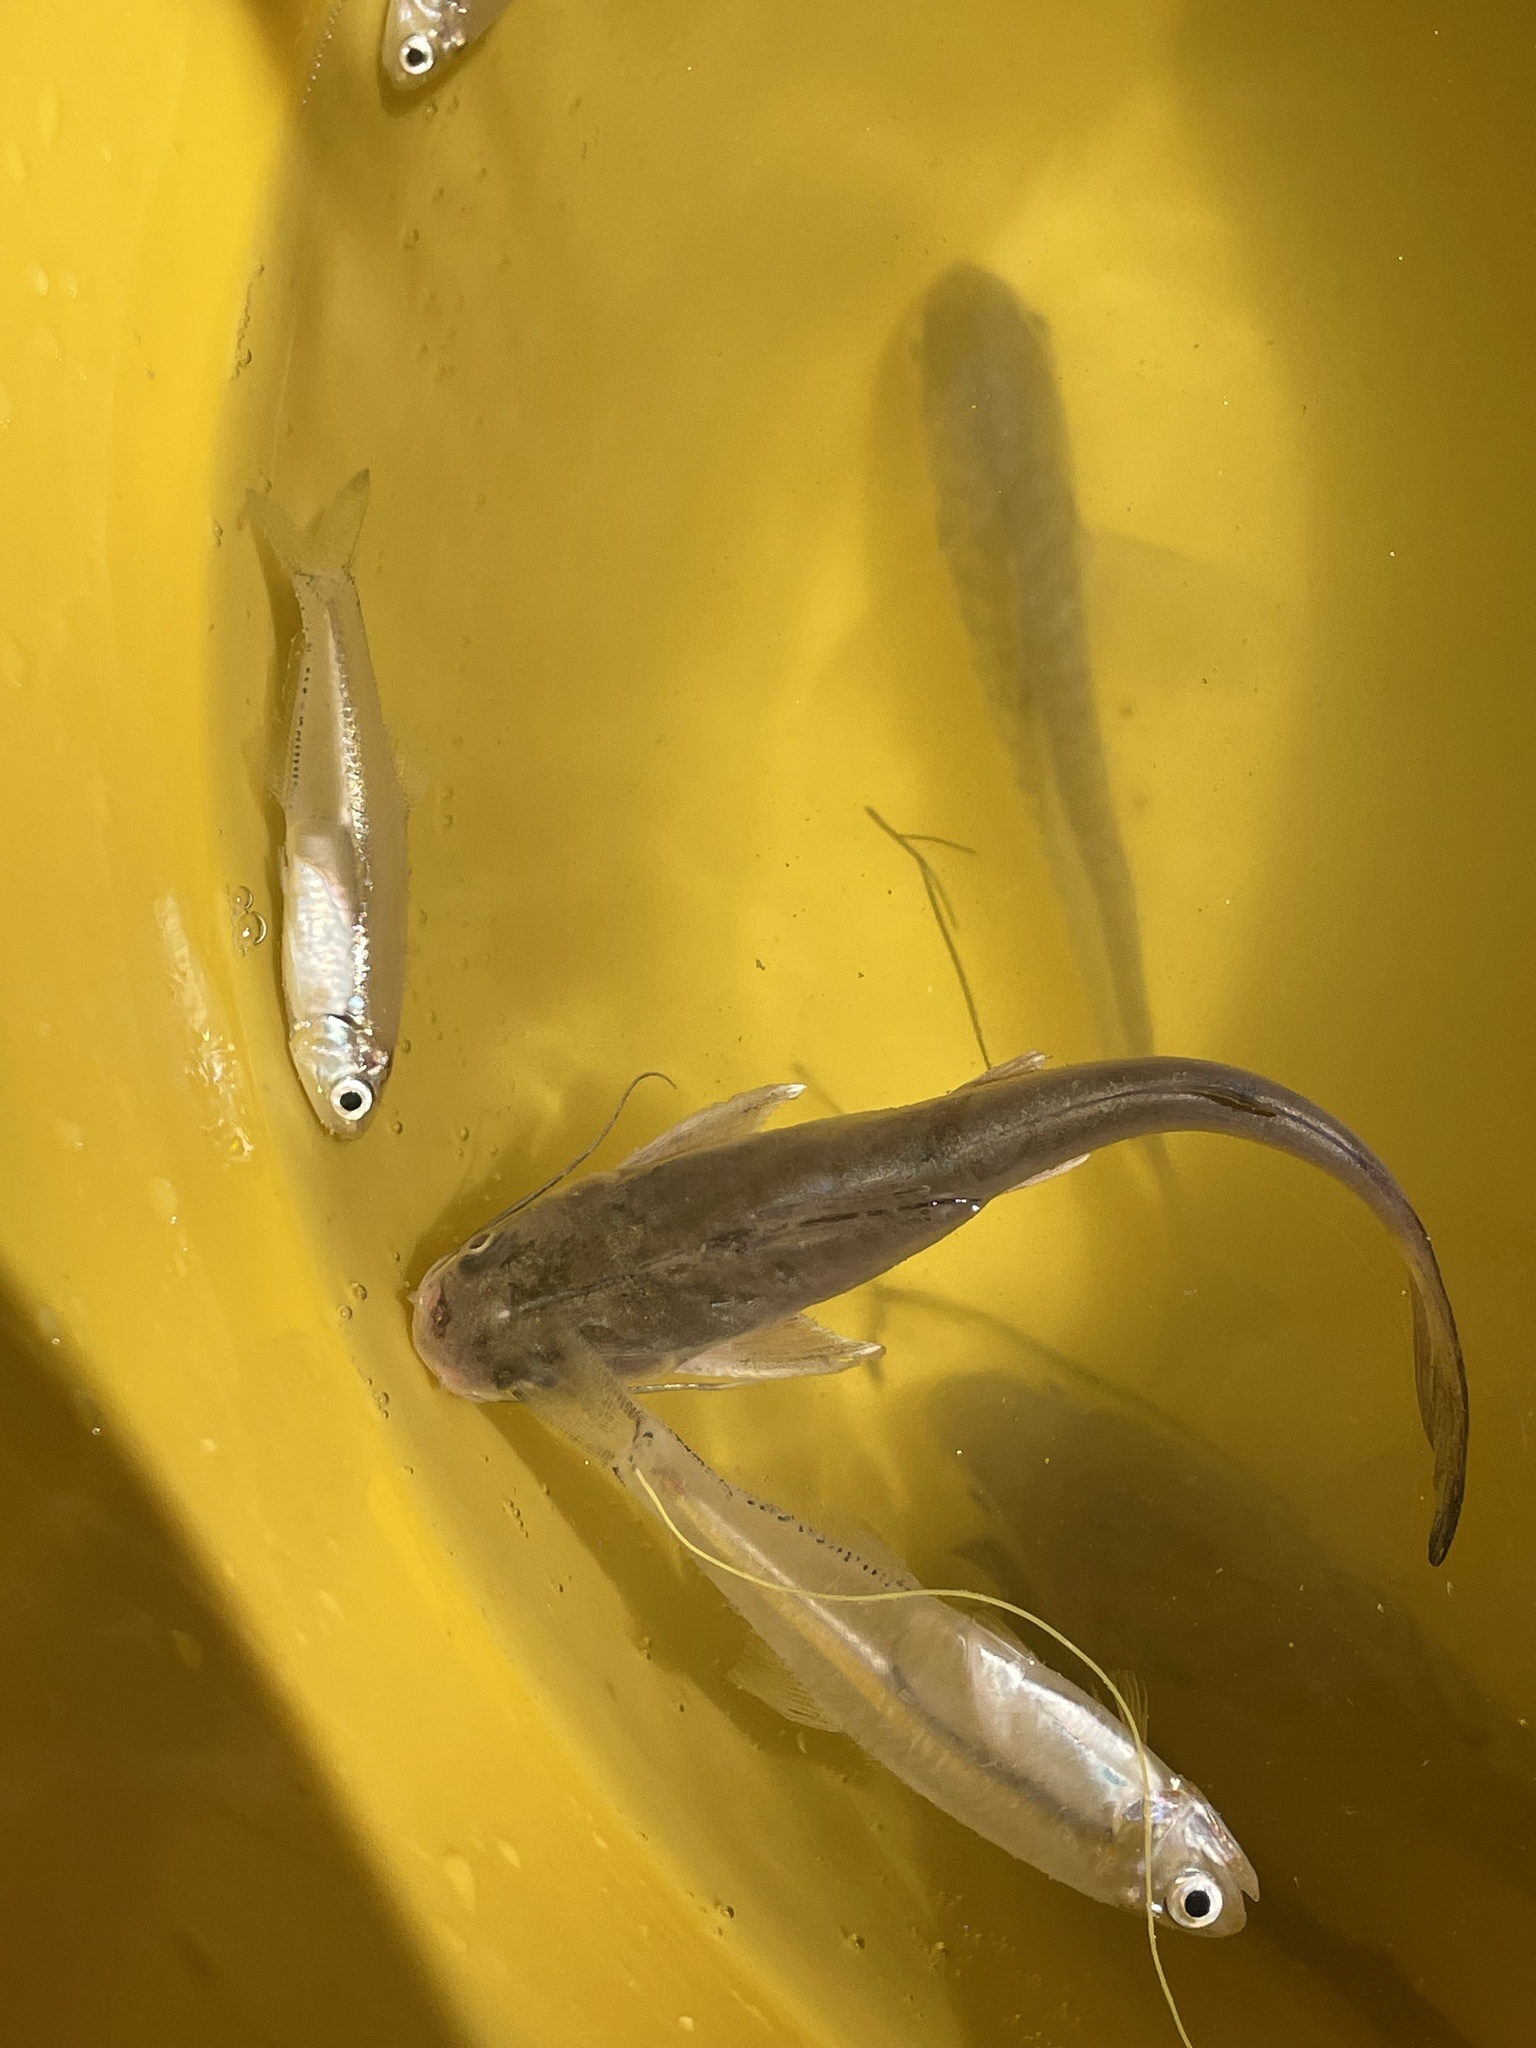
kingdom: Animalia
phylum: Chordata
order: Siluriformes
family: Ariidae
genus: Ariopsis
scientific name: Ariopsis felis
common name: Hardhead catfish
